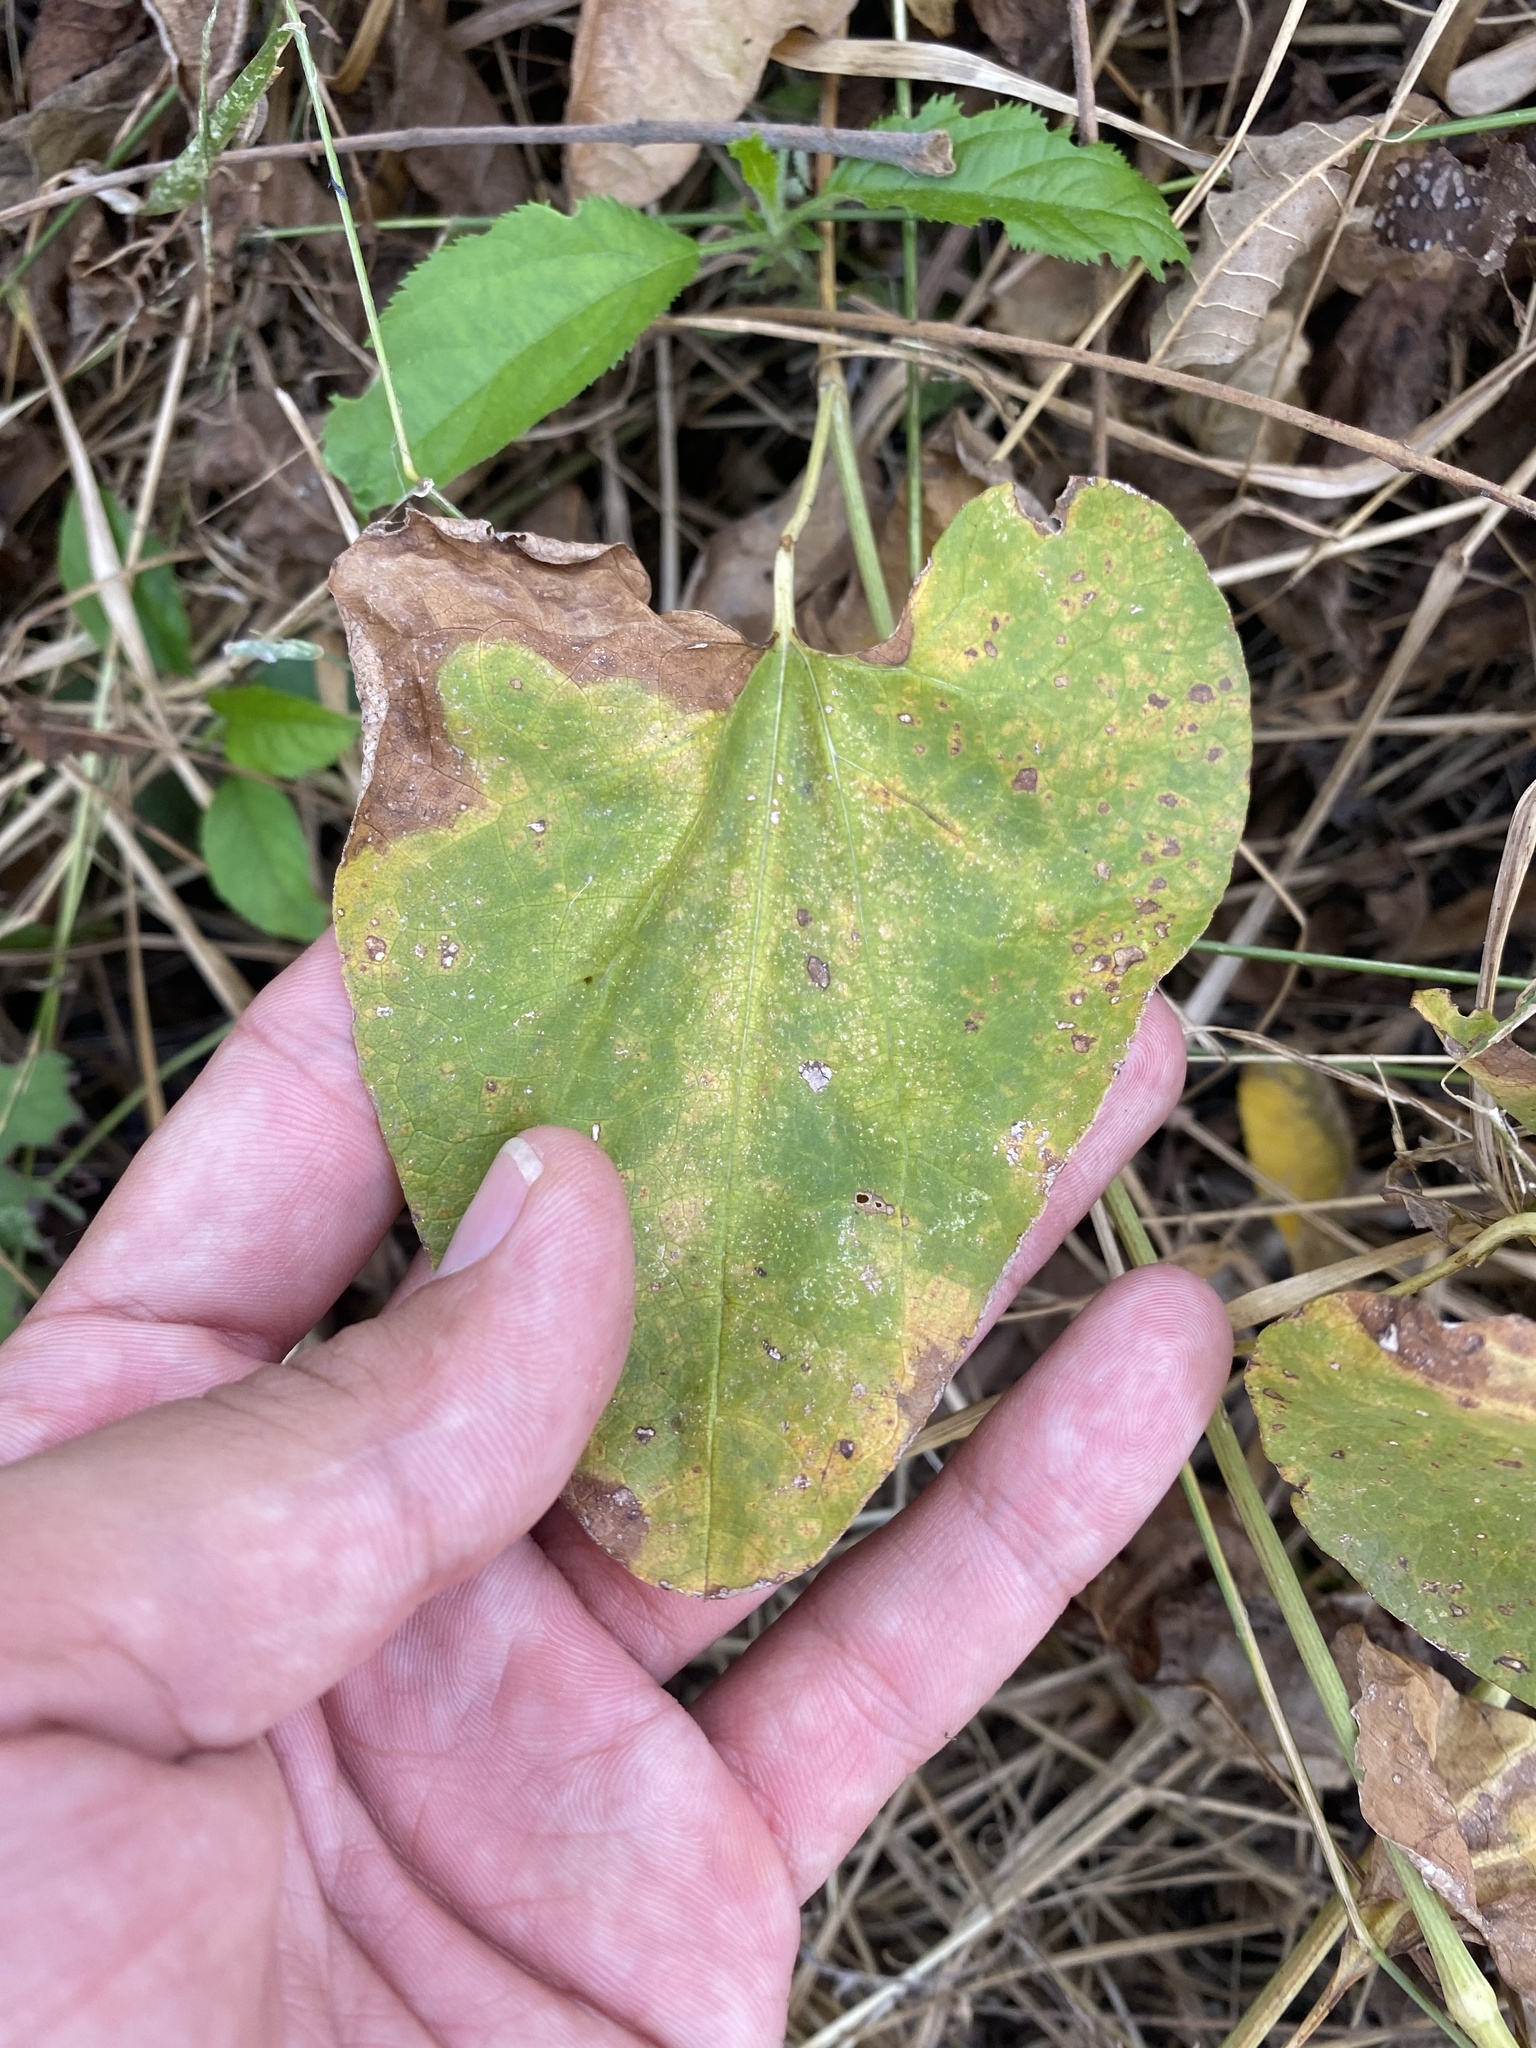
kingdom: Plantae
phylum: Tracheophyta
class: Magnoliopsida
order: Piperales
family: Aristolochiaceae
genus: Aristolochia
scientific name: Aristolochia clematitis
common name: Birthwort
